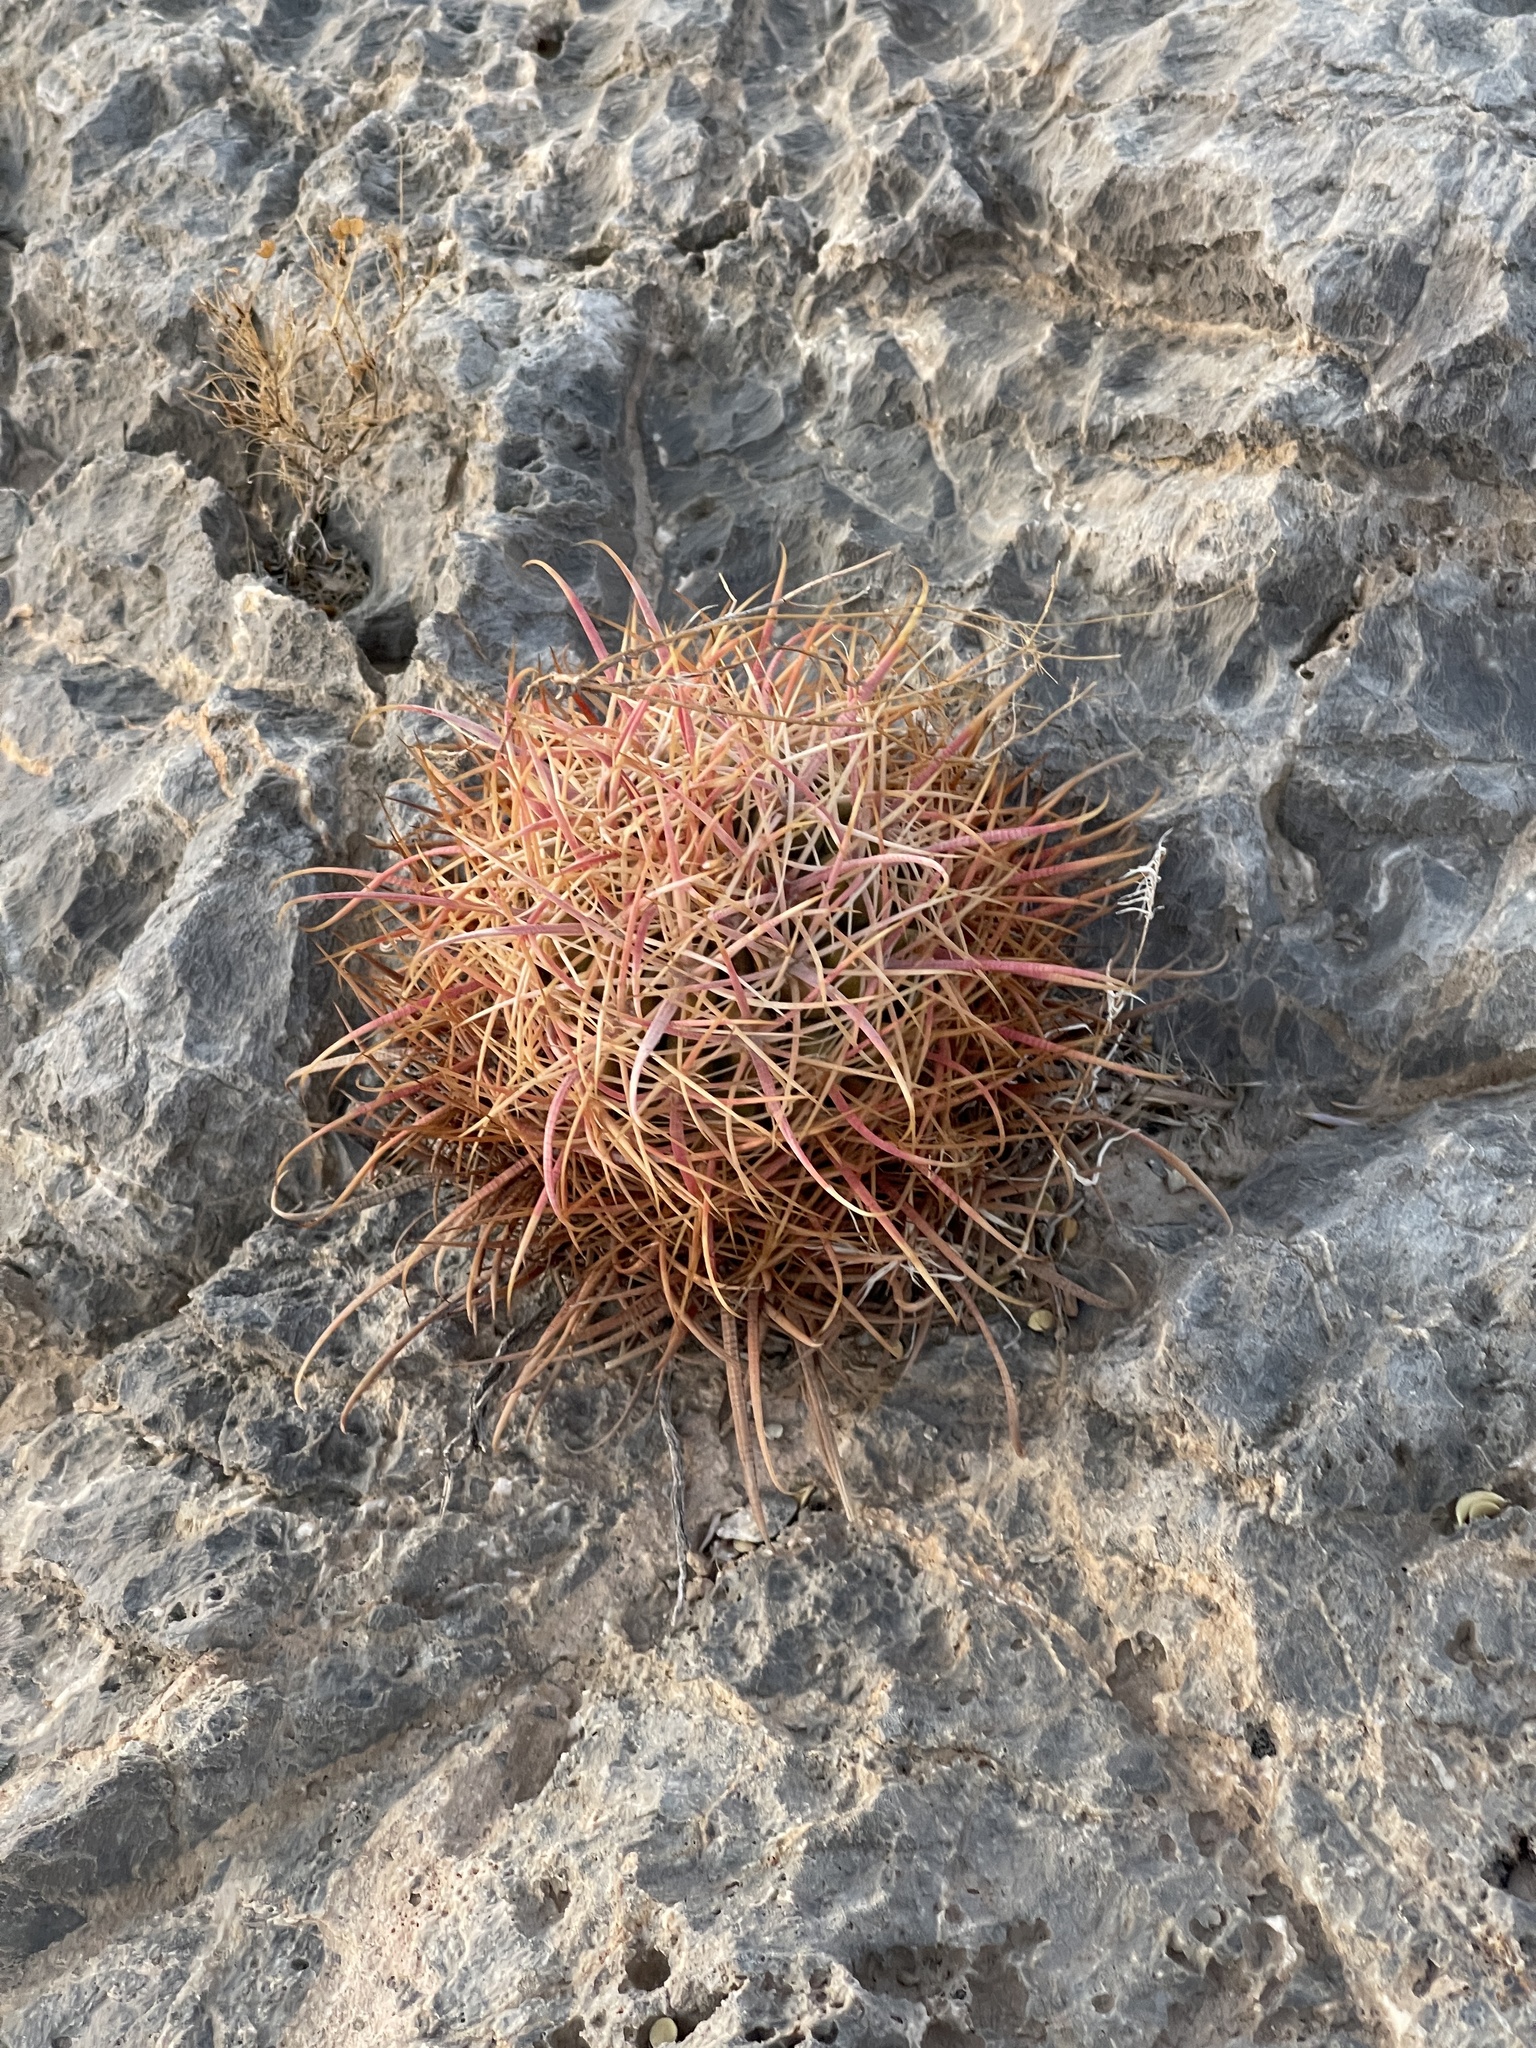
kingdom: Plantae
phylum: Tracheophyta
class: Magnoliopsida
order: Caryophyllales
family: Cactaceae
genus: Ferocactus
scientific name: Ferocactus cylindraceus
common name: California barrel cactus
